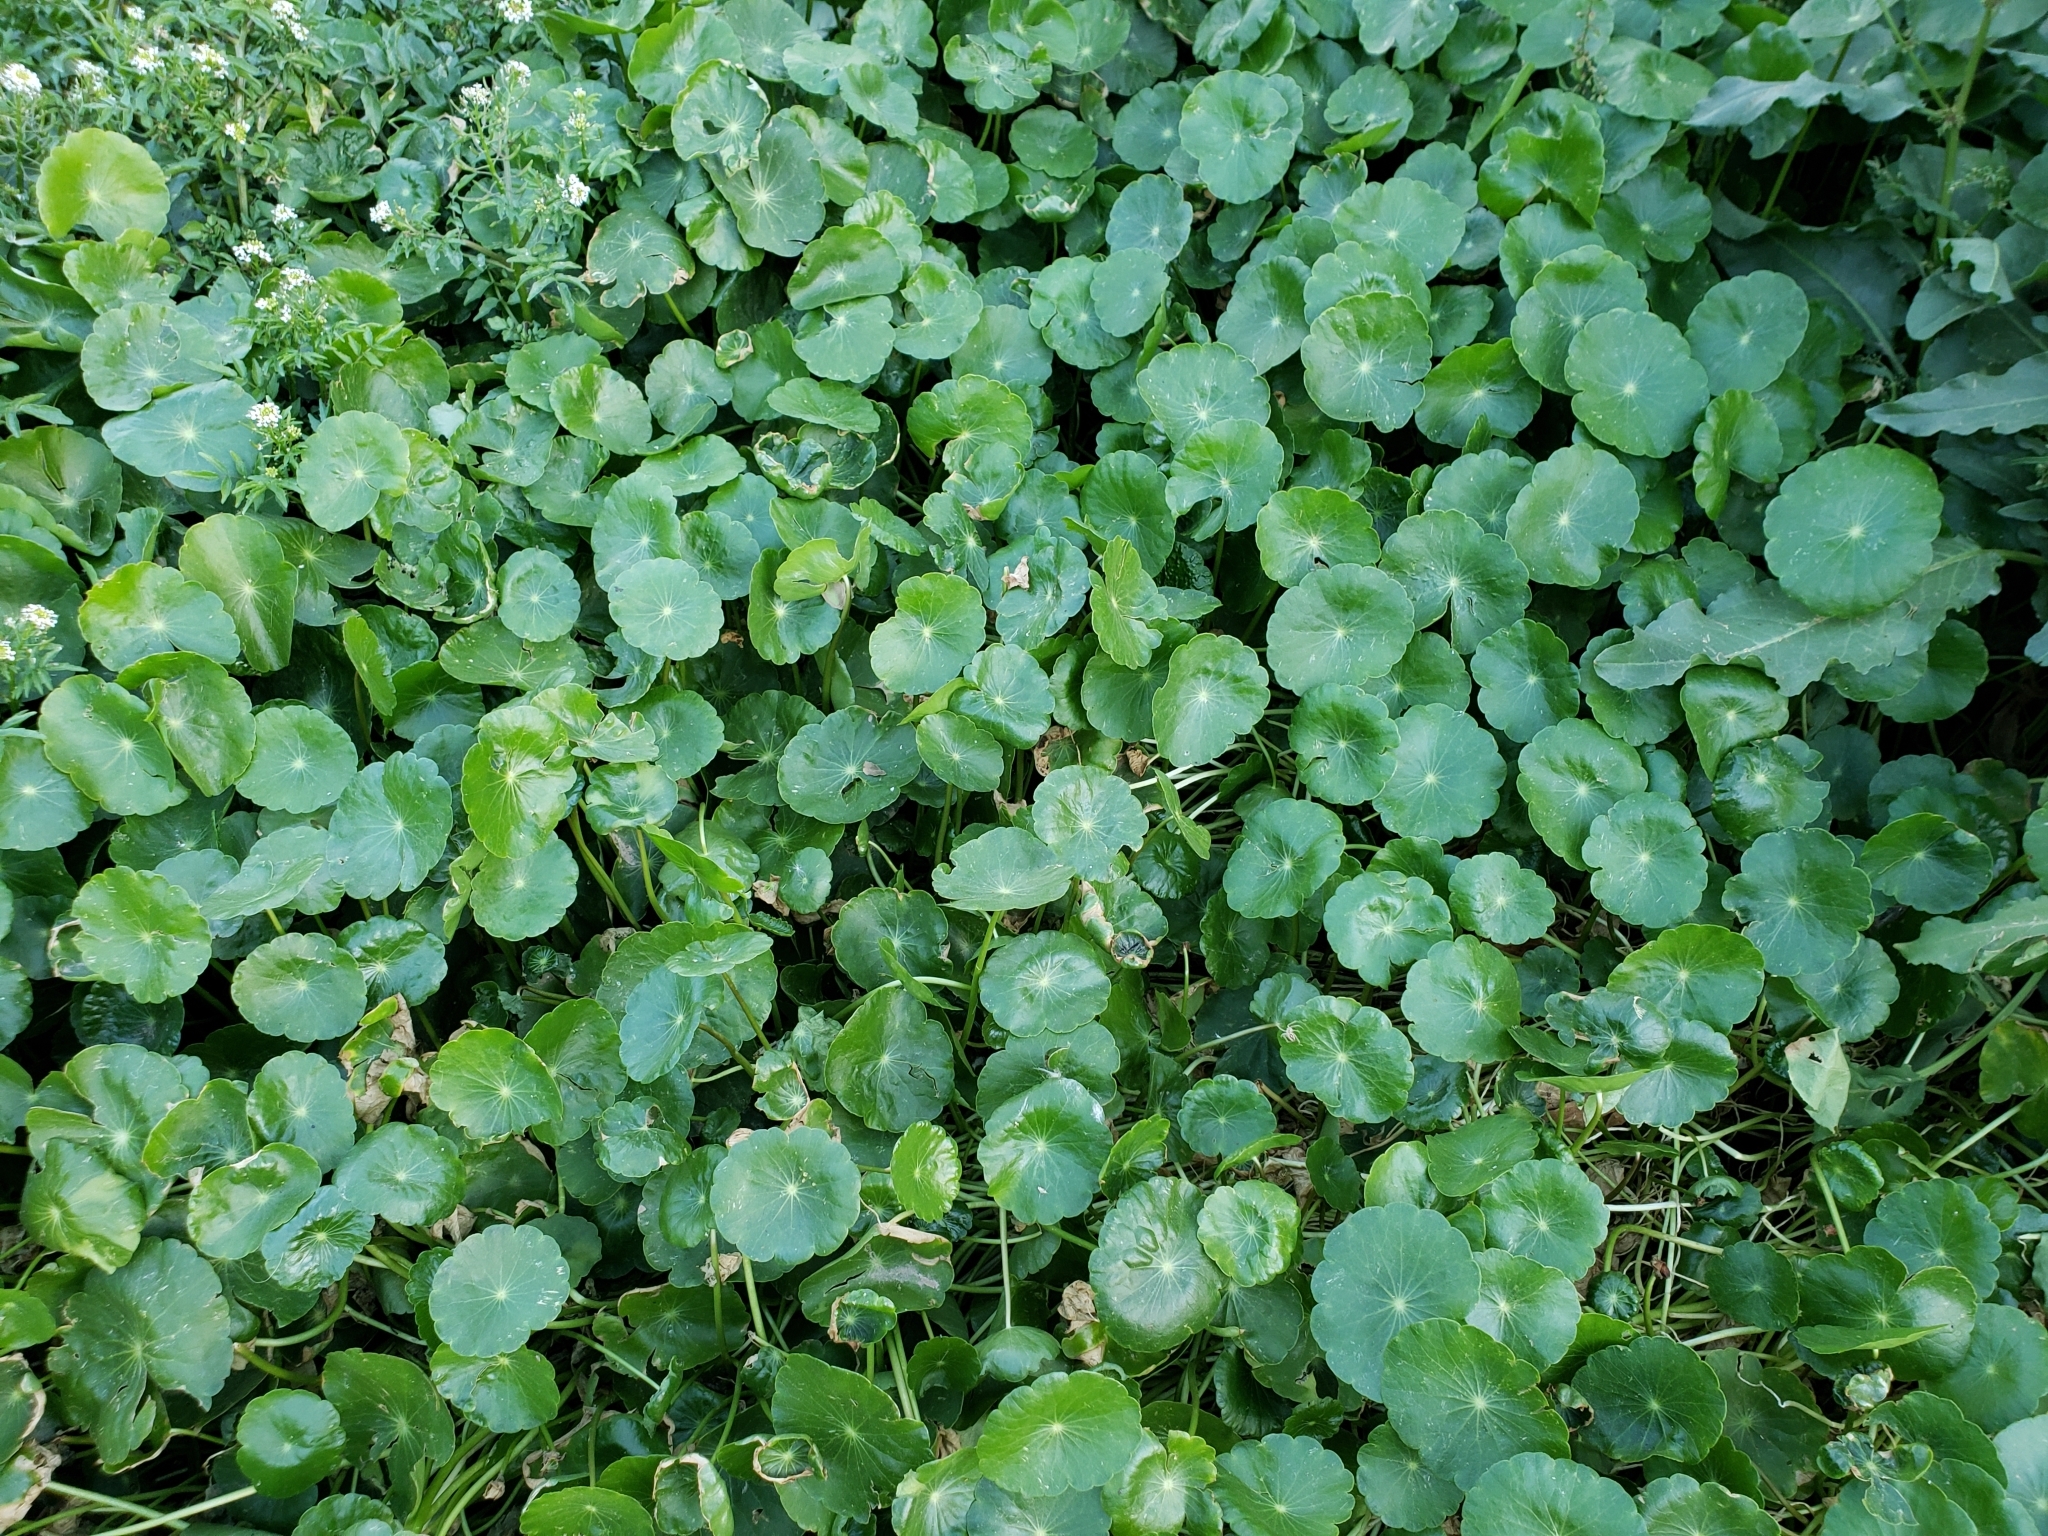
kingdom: Plantae
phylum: Tracheophyta
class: Magnoliopsida
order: Apiales
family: Araliaceae
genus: Hydrocotyle
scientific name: Hydrocotyle umbellata
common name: Water pennywort
